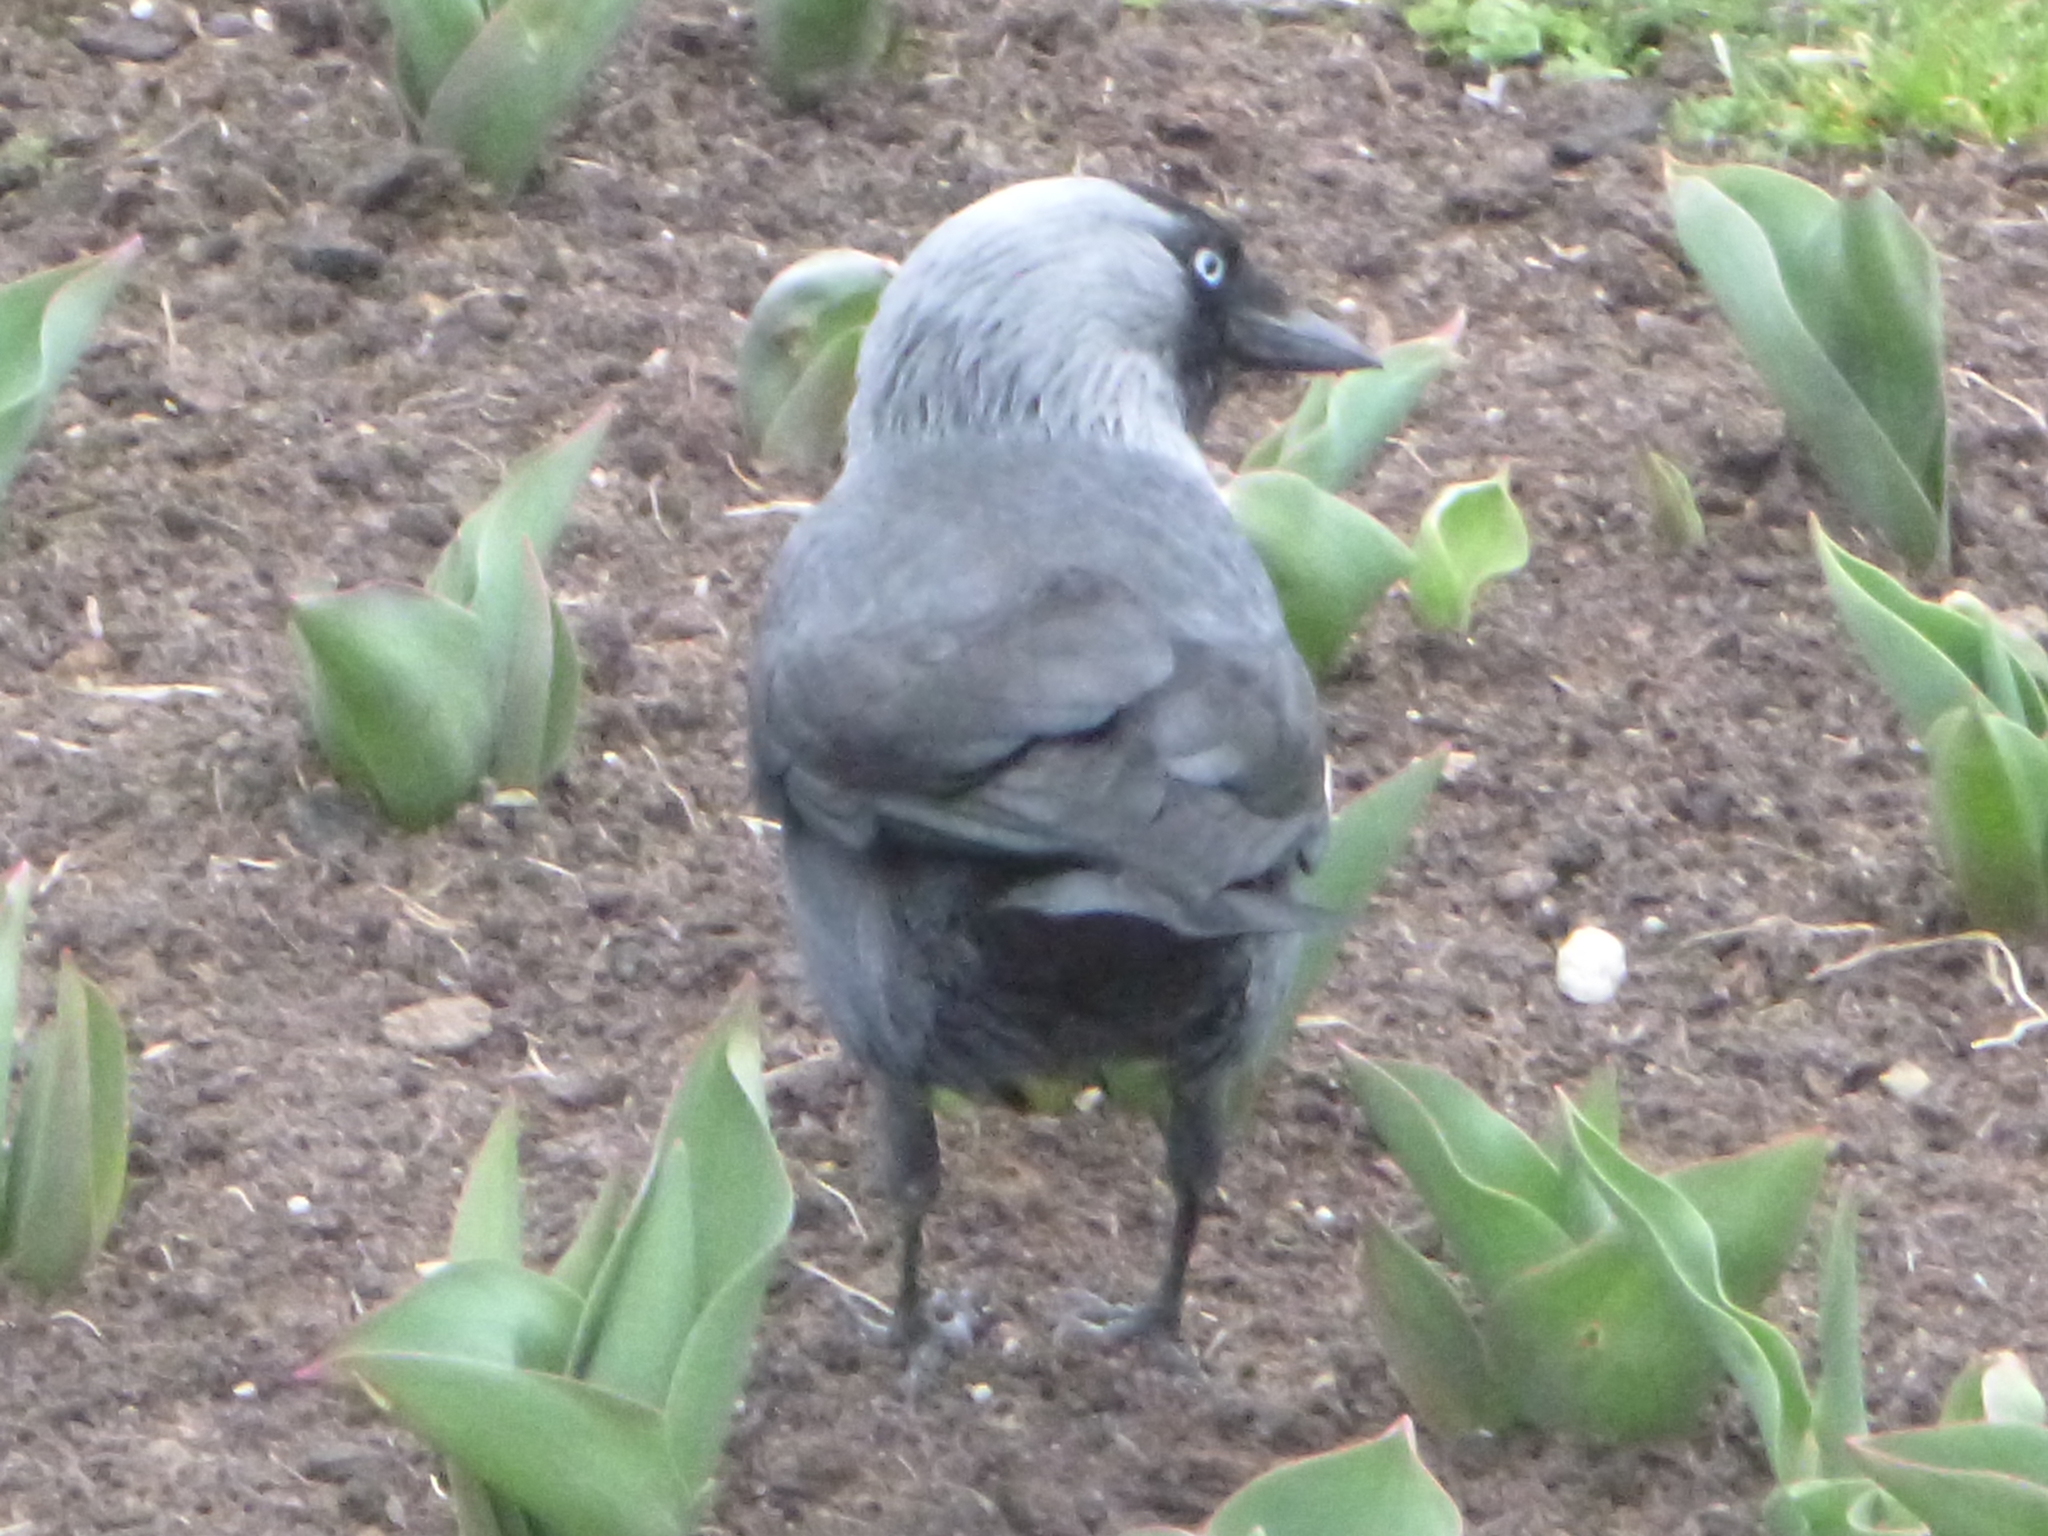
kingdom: Animalia
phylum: Chordata
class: Aves
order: Passeriformes
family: Corvidae
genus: Coloeus
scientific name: Coloeus monedula
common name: Western jackdaw
